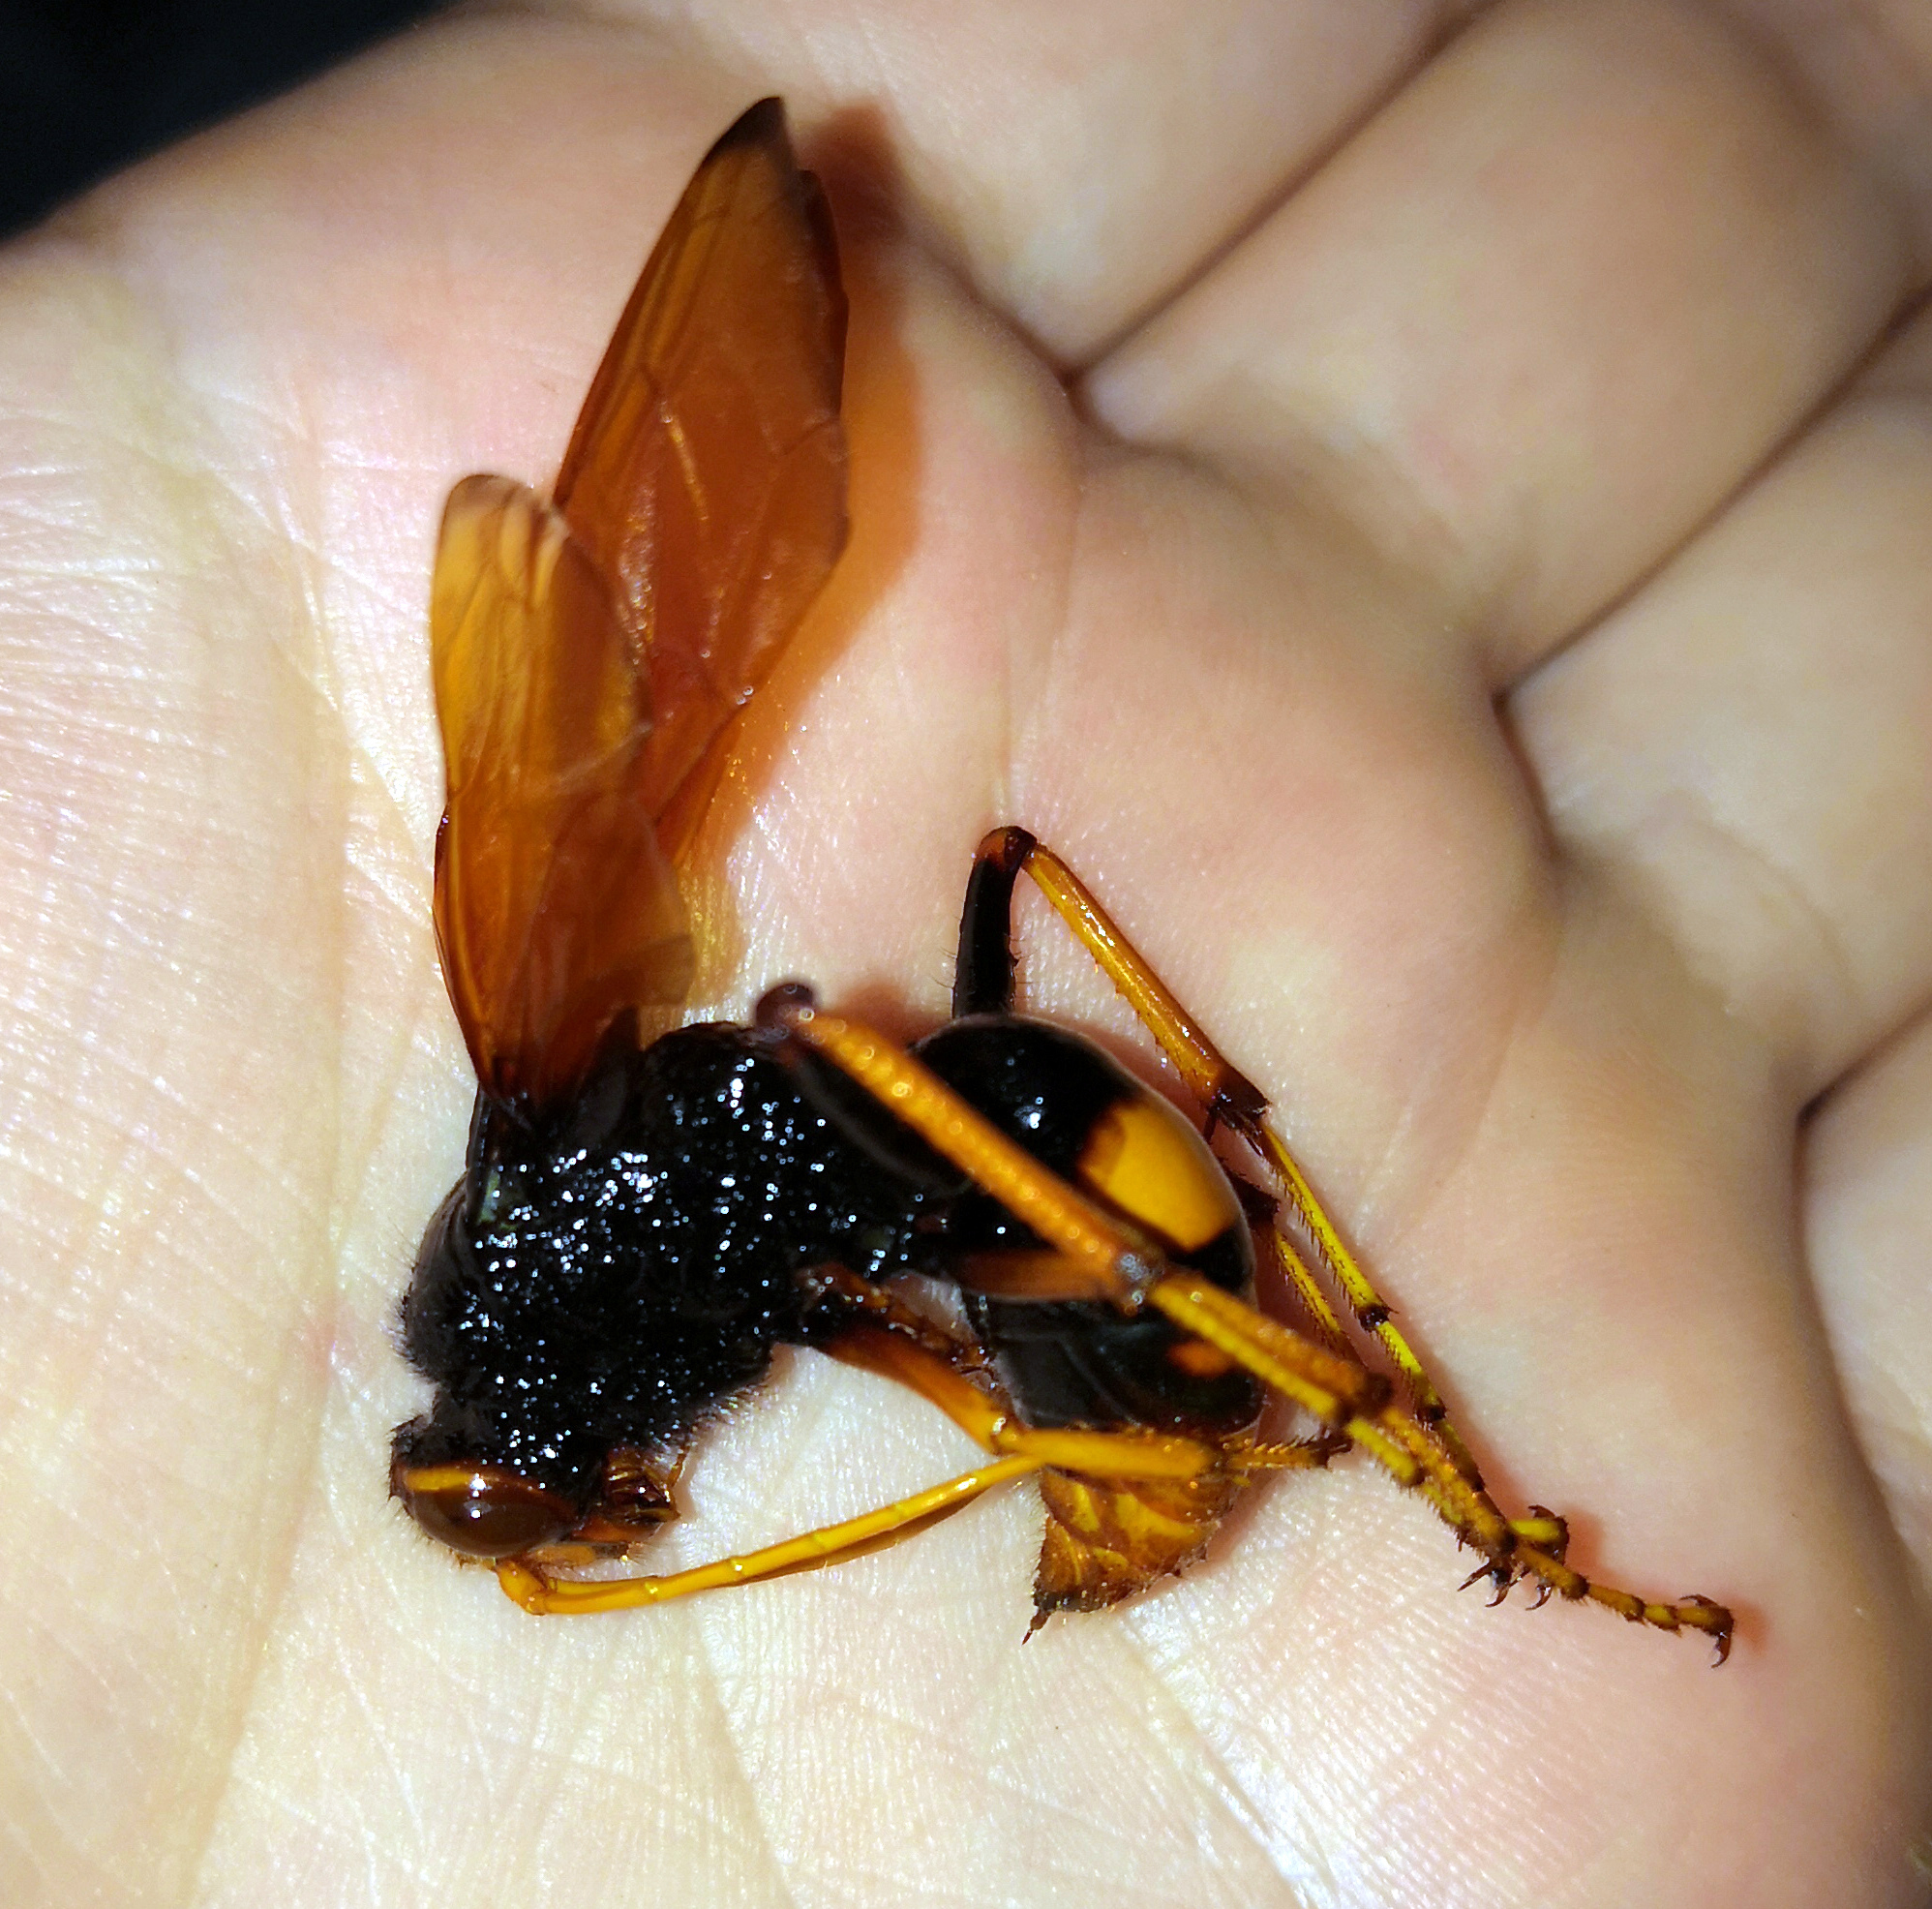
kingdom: Animalia
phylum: Arthropoda
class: Insecta
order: Hymenoptera
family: Pompilidae
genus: Cryptocheilus
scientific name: Cryptocheilus octomaculatus
